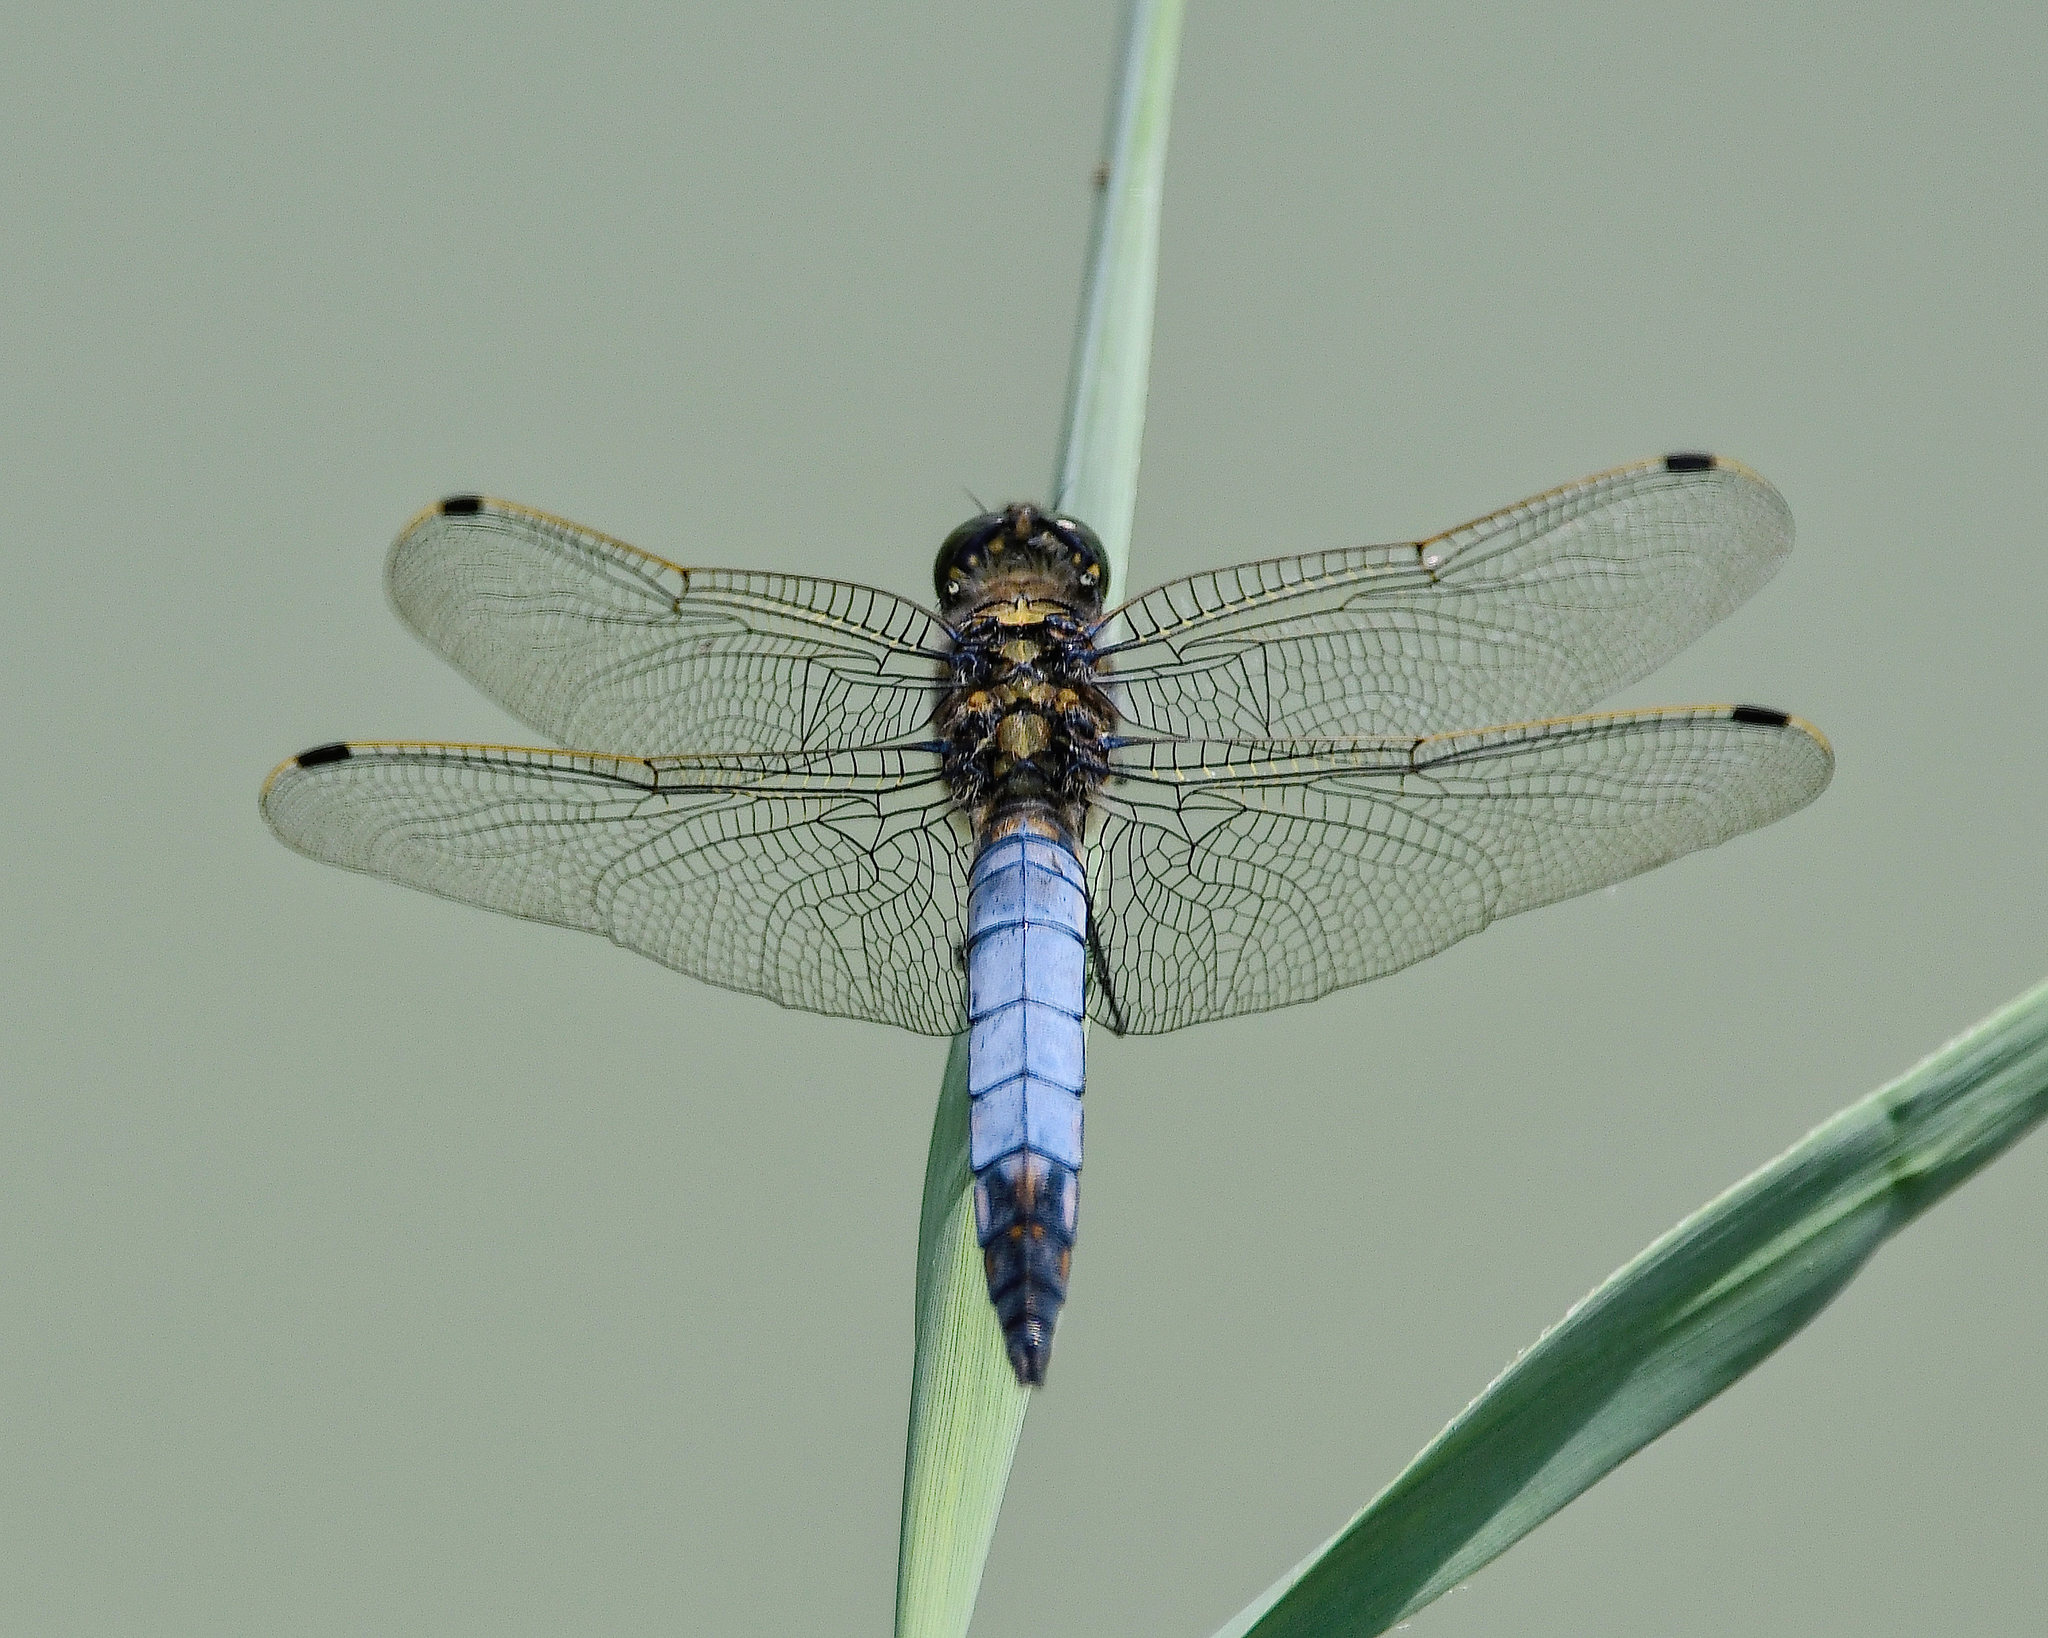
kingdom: Animalia
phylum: Arthropoda
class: Insecta
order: Odonata
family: Libellulidae
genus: Orthetrum
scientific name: Orthetrum cancellatum
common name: Black-tailed skimmer
